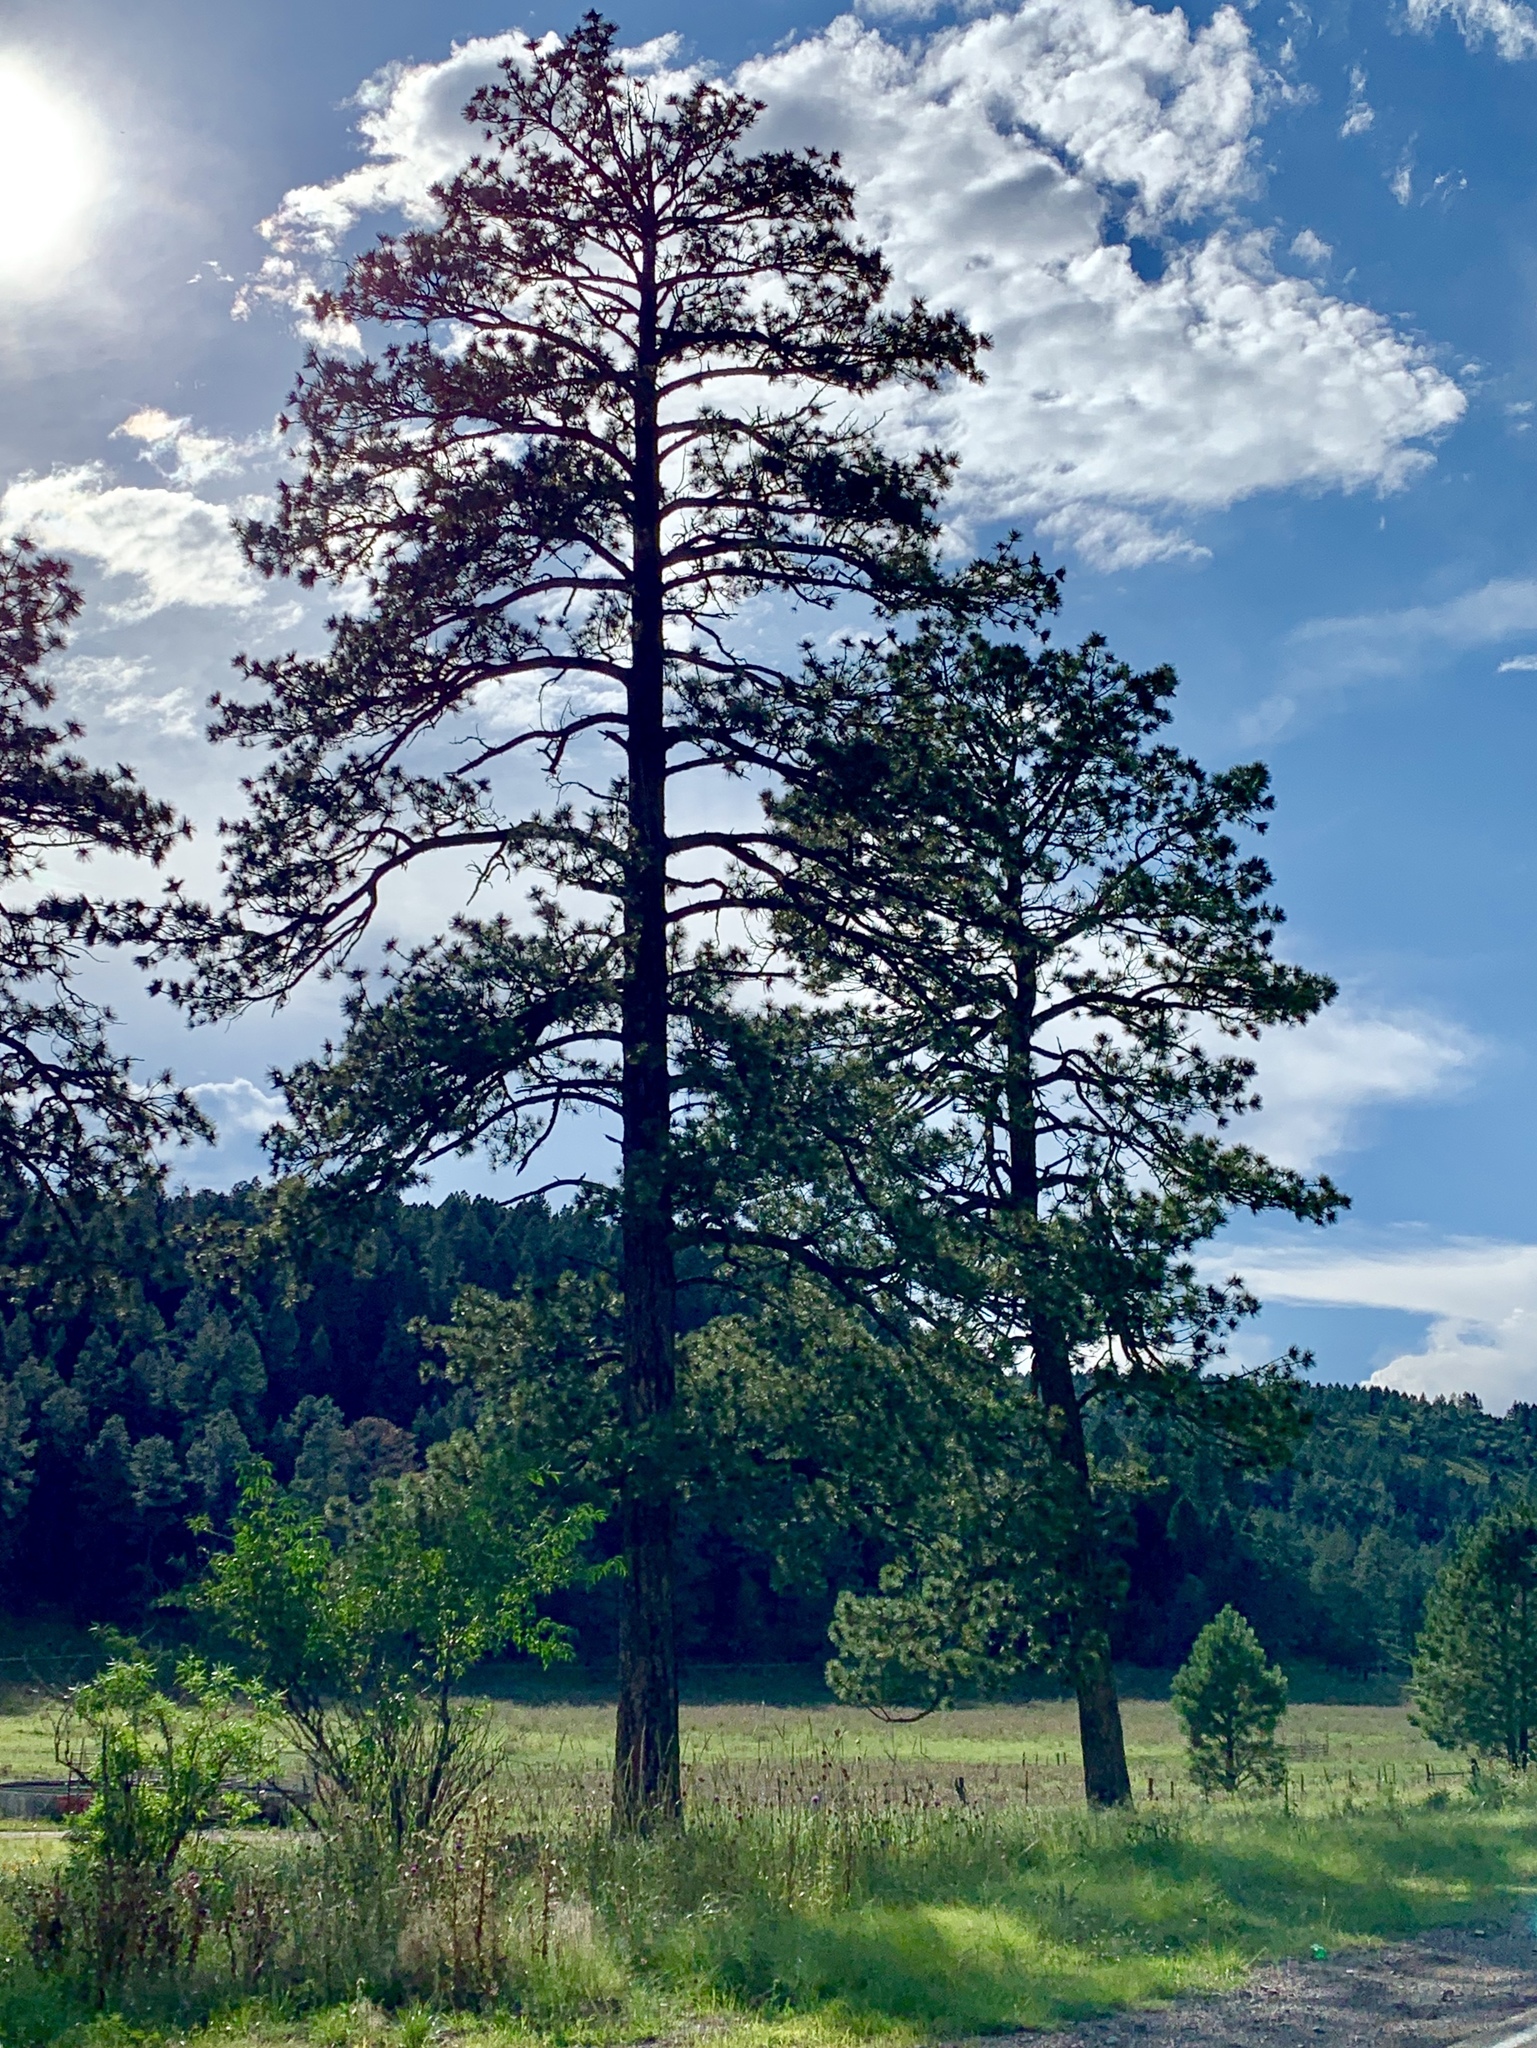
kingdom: Plantae
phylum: Tracheophyta
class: Pinopsida
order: Pinales
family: Pinaceae
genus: Pinus
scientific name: Pinus ponderosa
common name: Western yellow-pine
